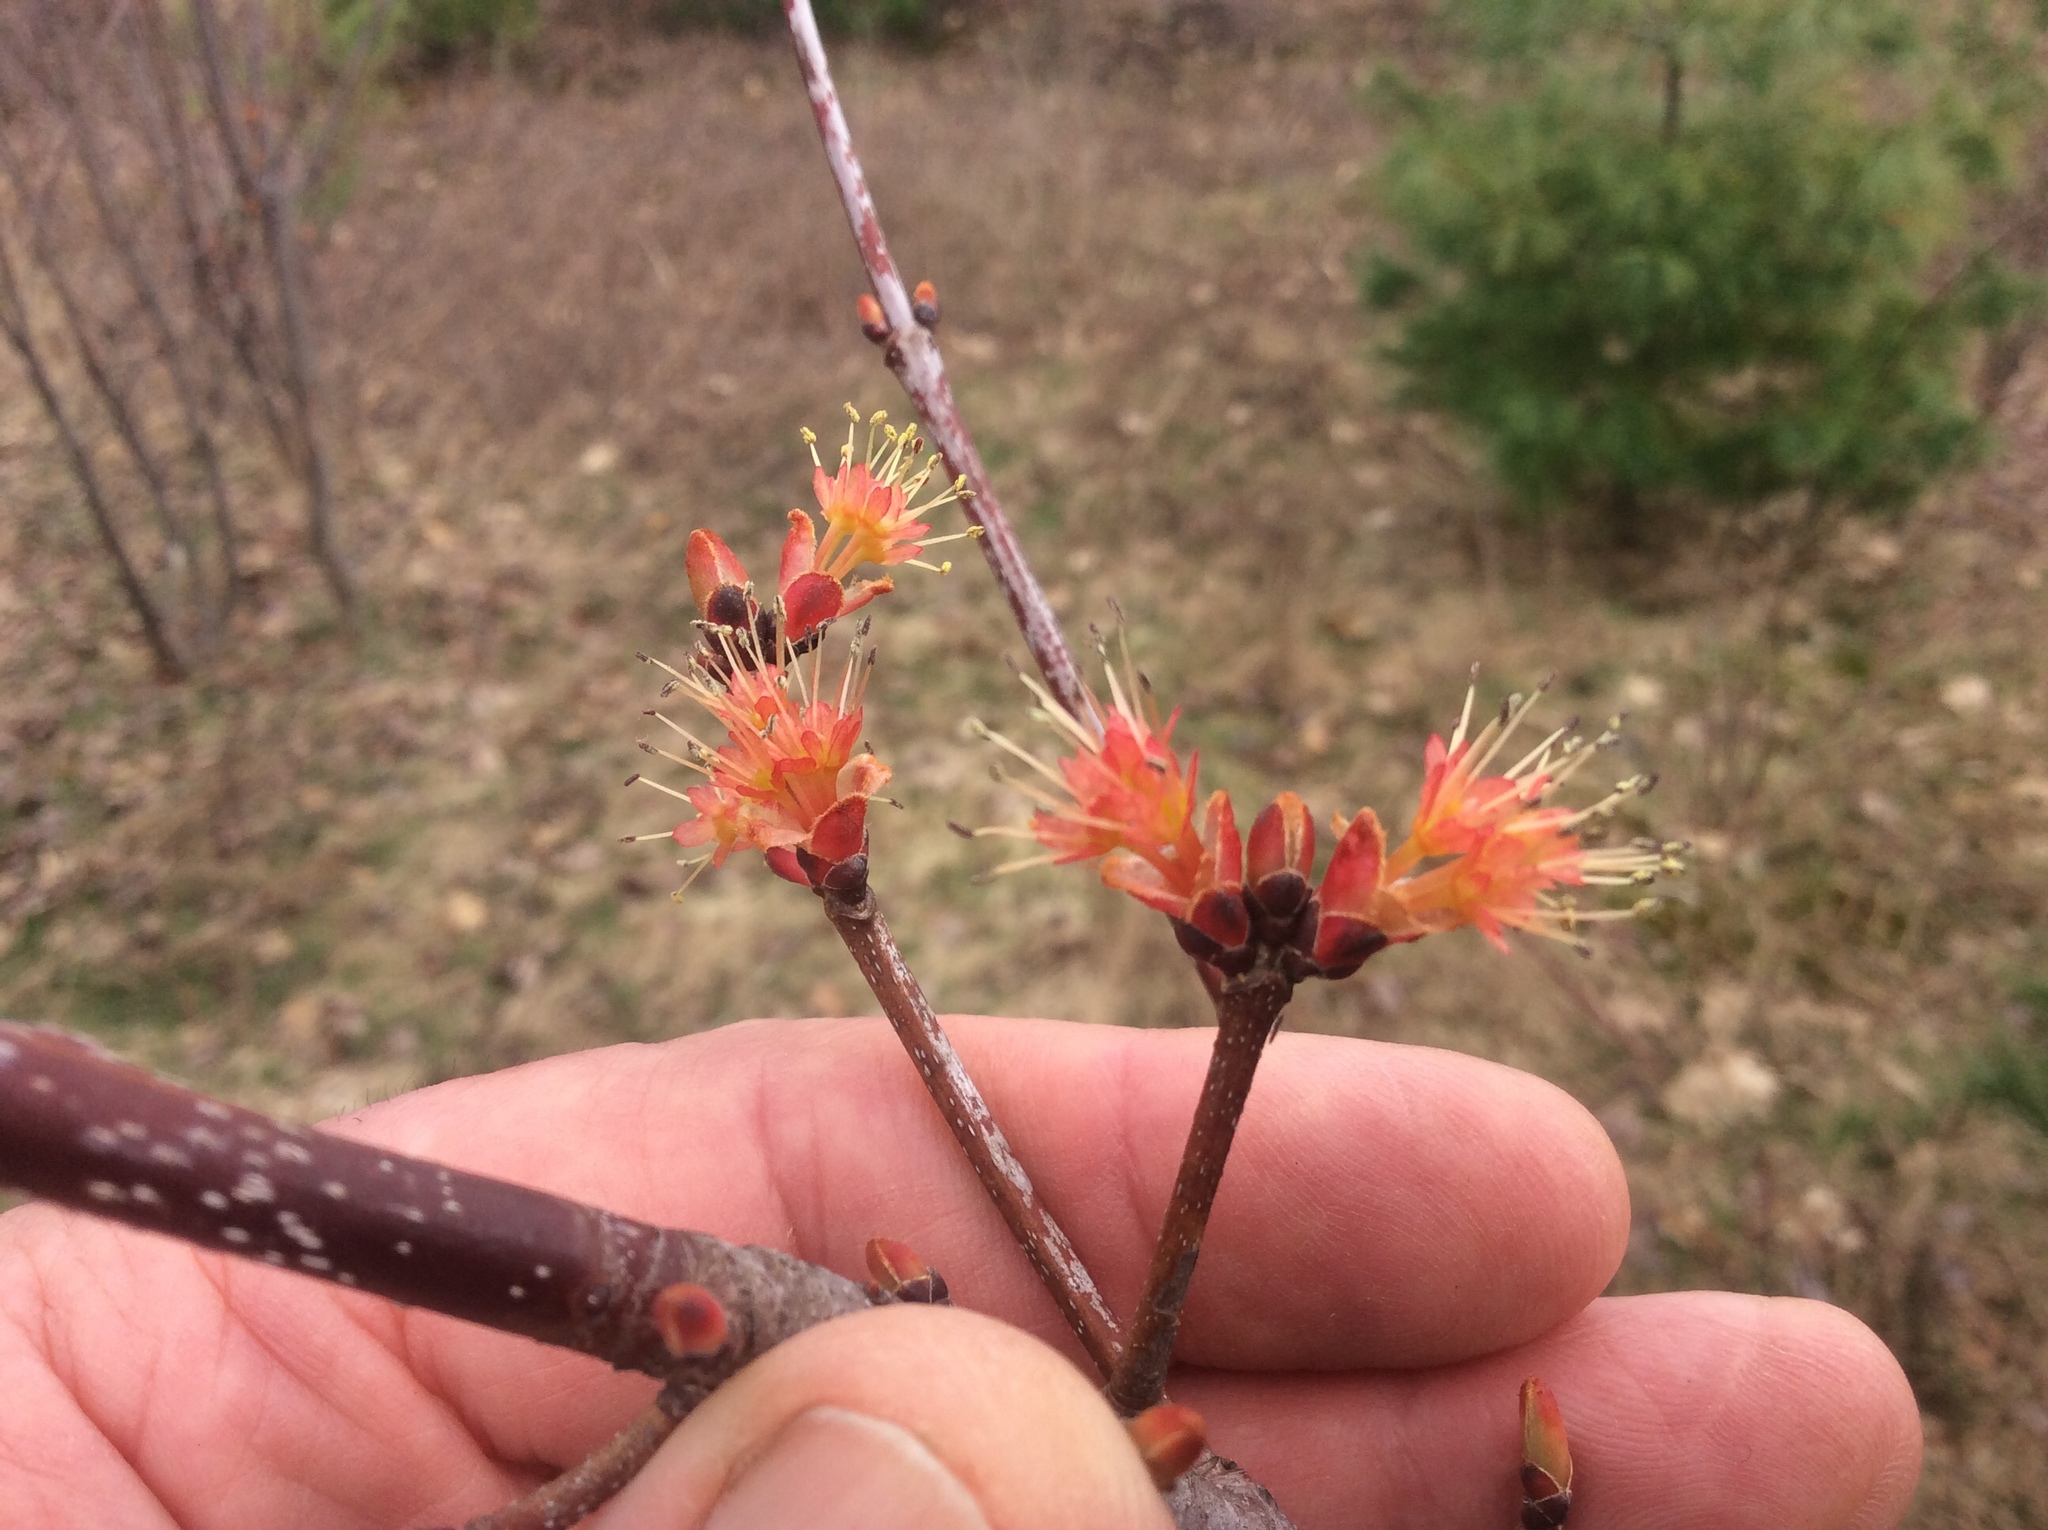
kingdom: Plantae
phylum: Tracheophyta
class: Magnoliopsida
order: Sapindales
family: Sapindaceae
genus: Acer
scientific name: Acer rubrum
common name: Red maple
